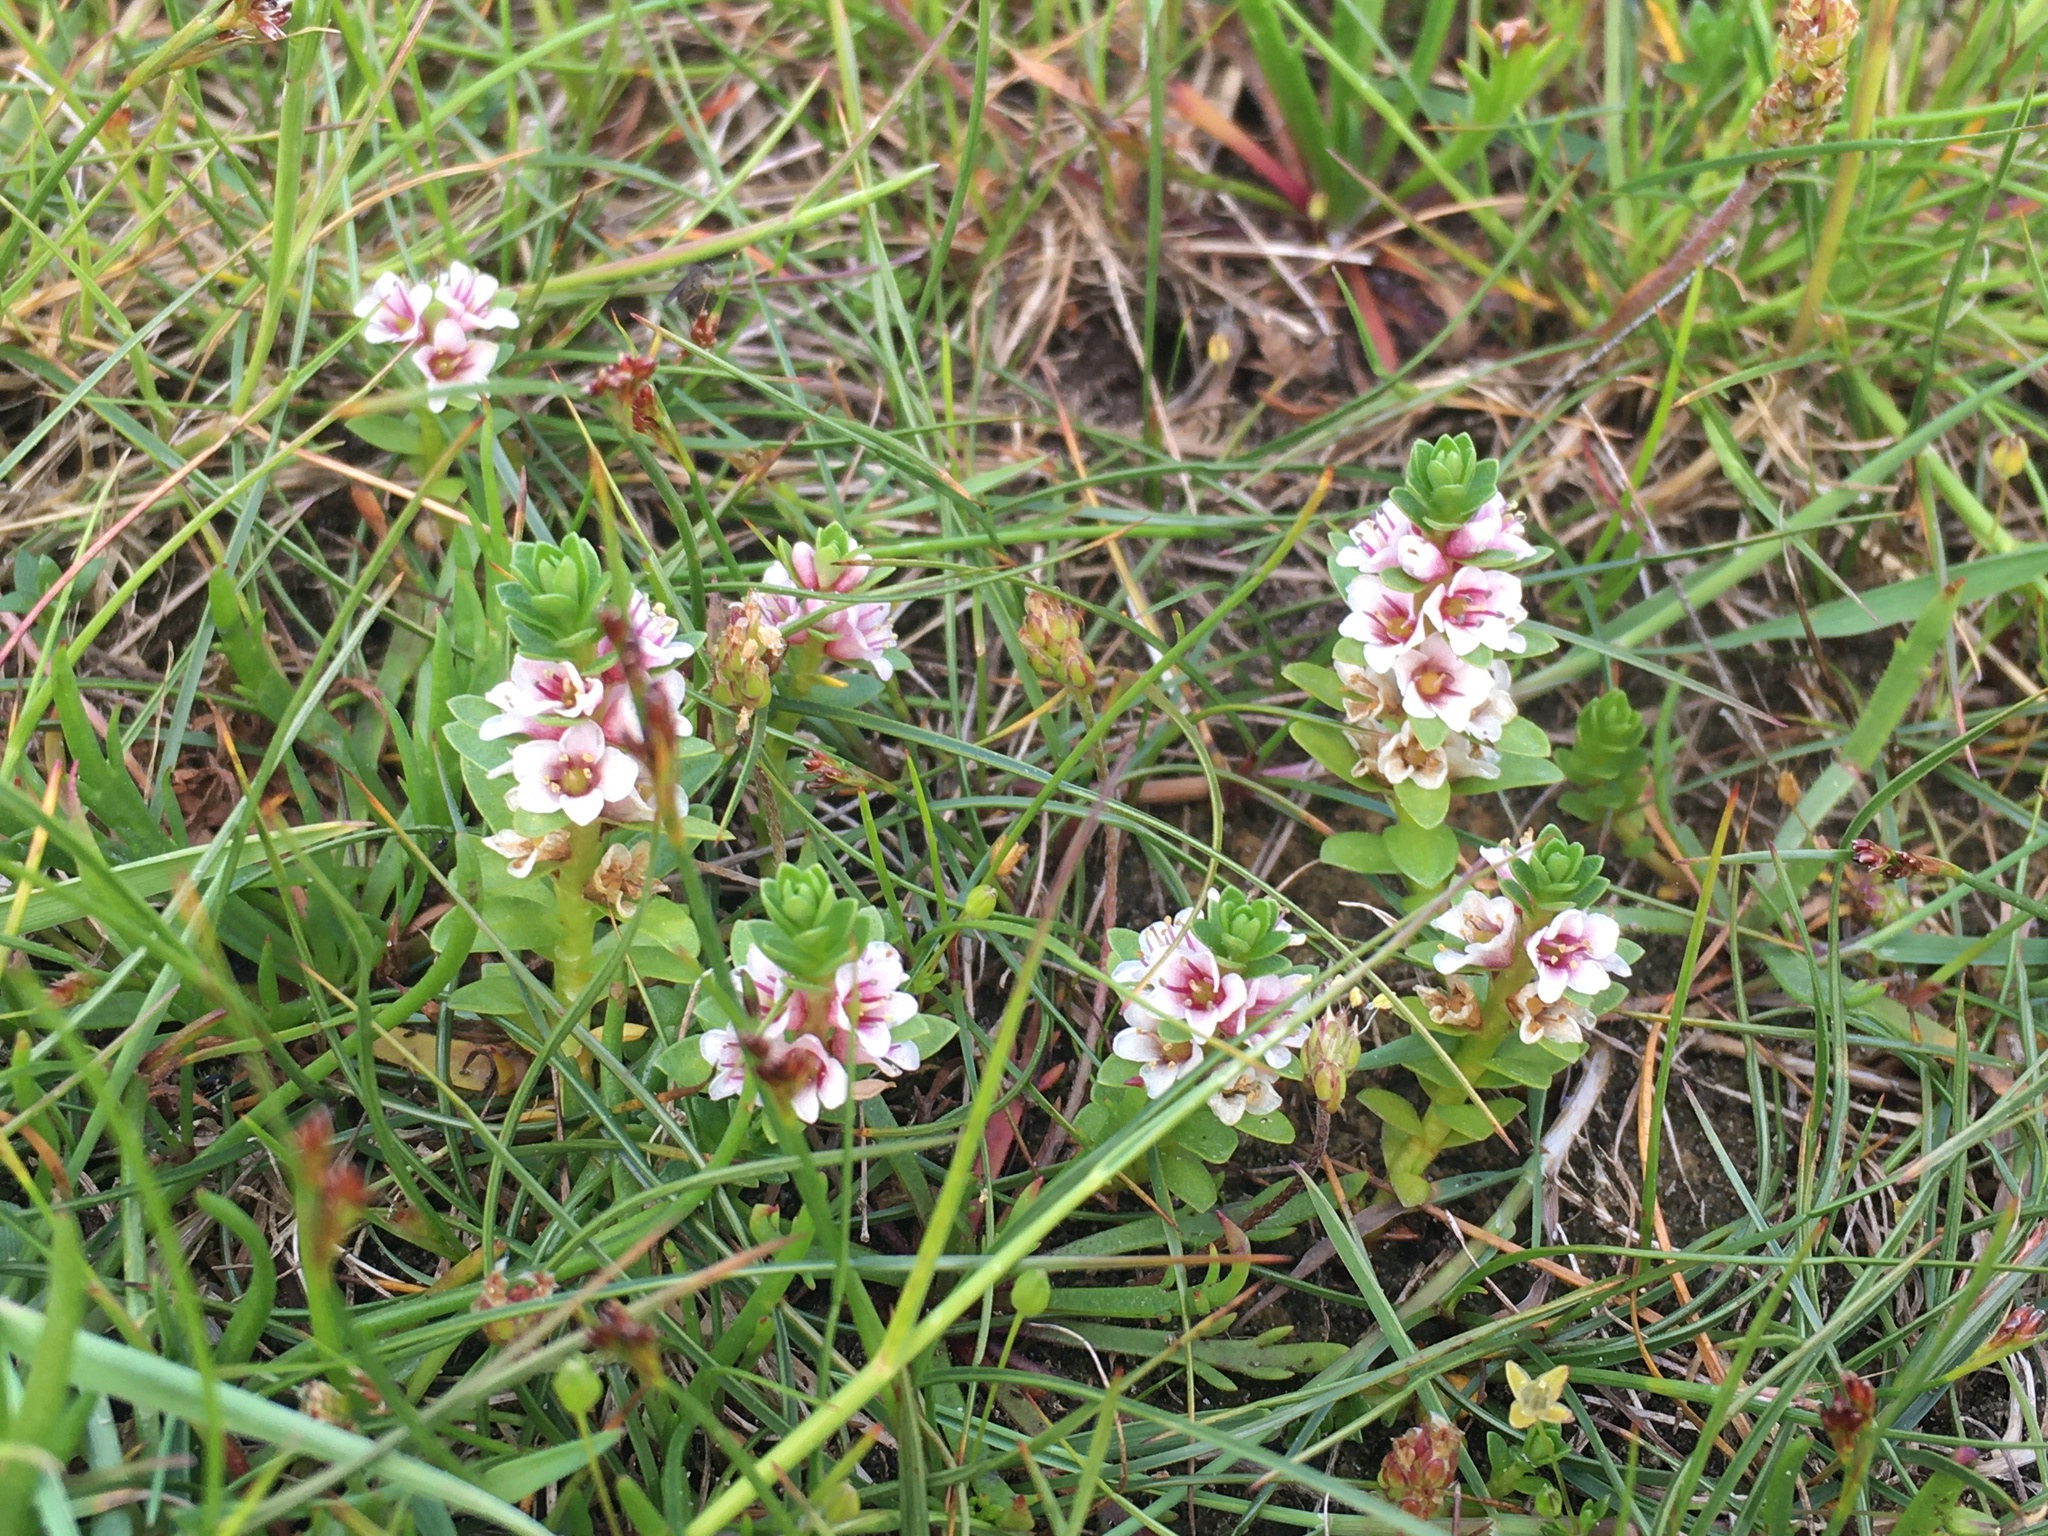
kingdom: Plantae
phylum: Tracheophyta
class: Magnoliopsida
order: Ericales
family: Primulaceae
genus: Lysimachia
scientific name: Lysimachia maritima
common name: Sea milkwort
